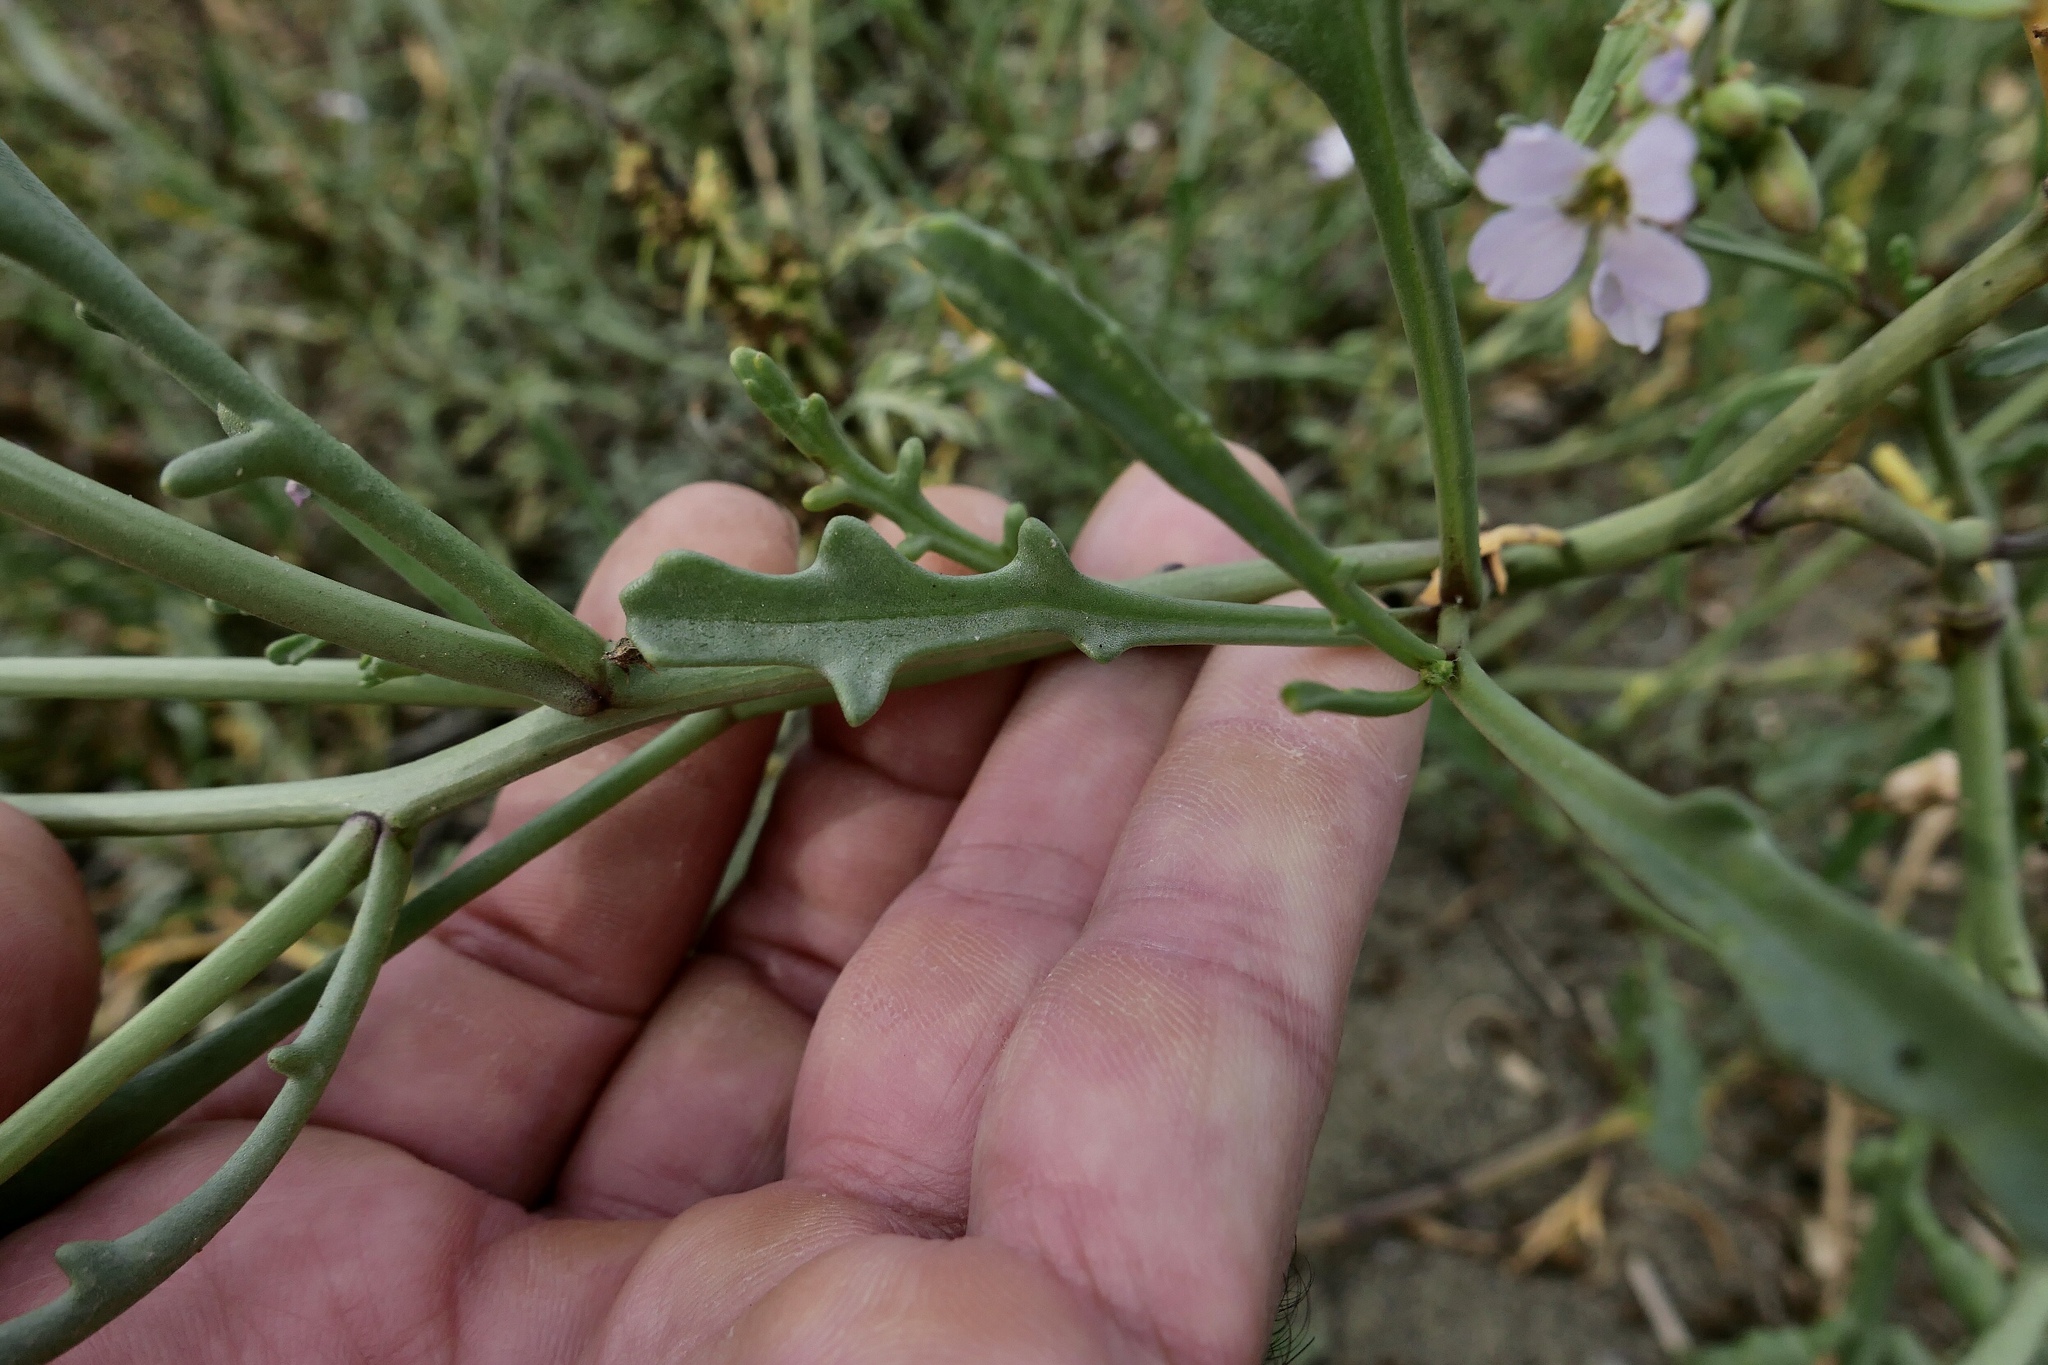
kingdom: Plantae
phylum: Tracheophyta
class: Magnoliopsida
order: Brassicales
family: Brassicaceae
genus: Cakile
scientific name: Cakile maritima
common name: Sea rocket
